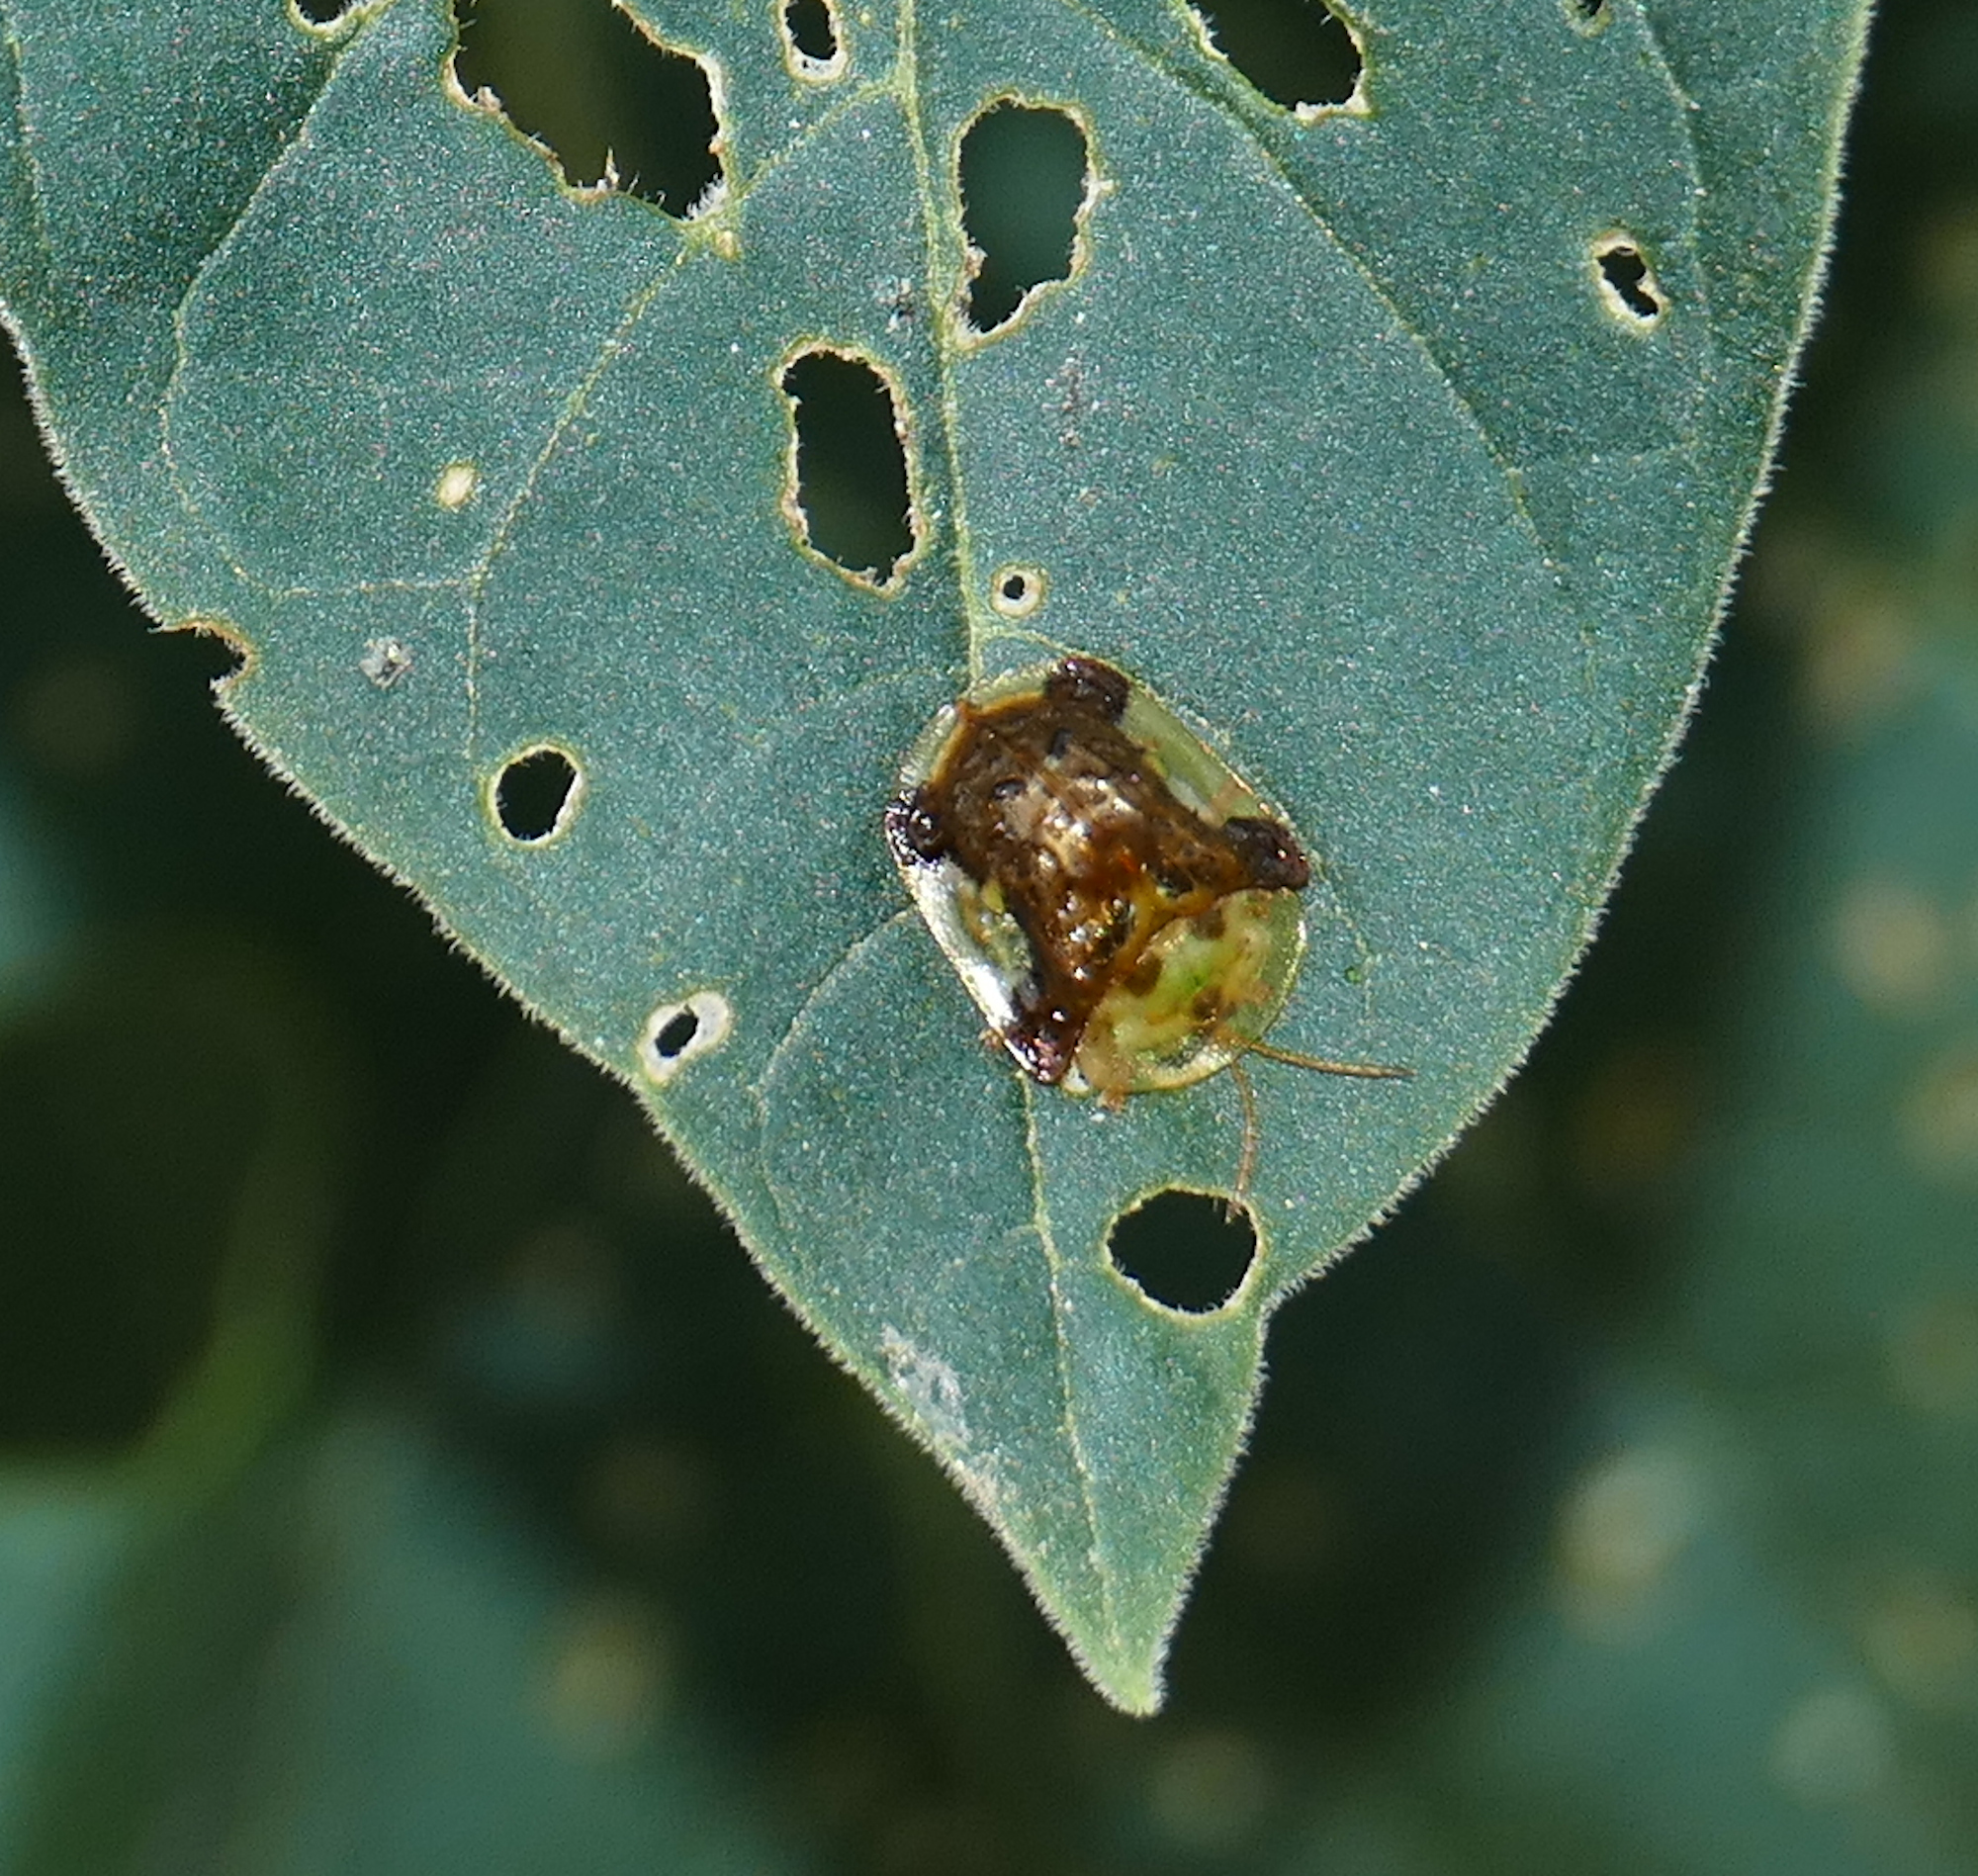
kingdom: Animalia
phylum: Arthropoda
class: Insecta
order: Coleoptera
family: Chrysomelidae
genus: Helocassis
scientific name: Helocassis testudinaria
